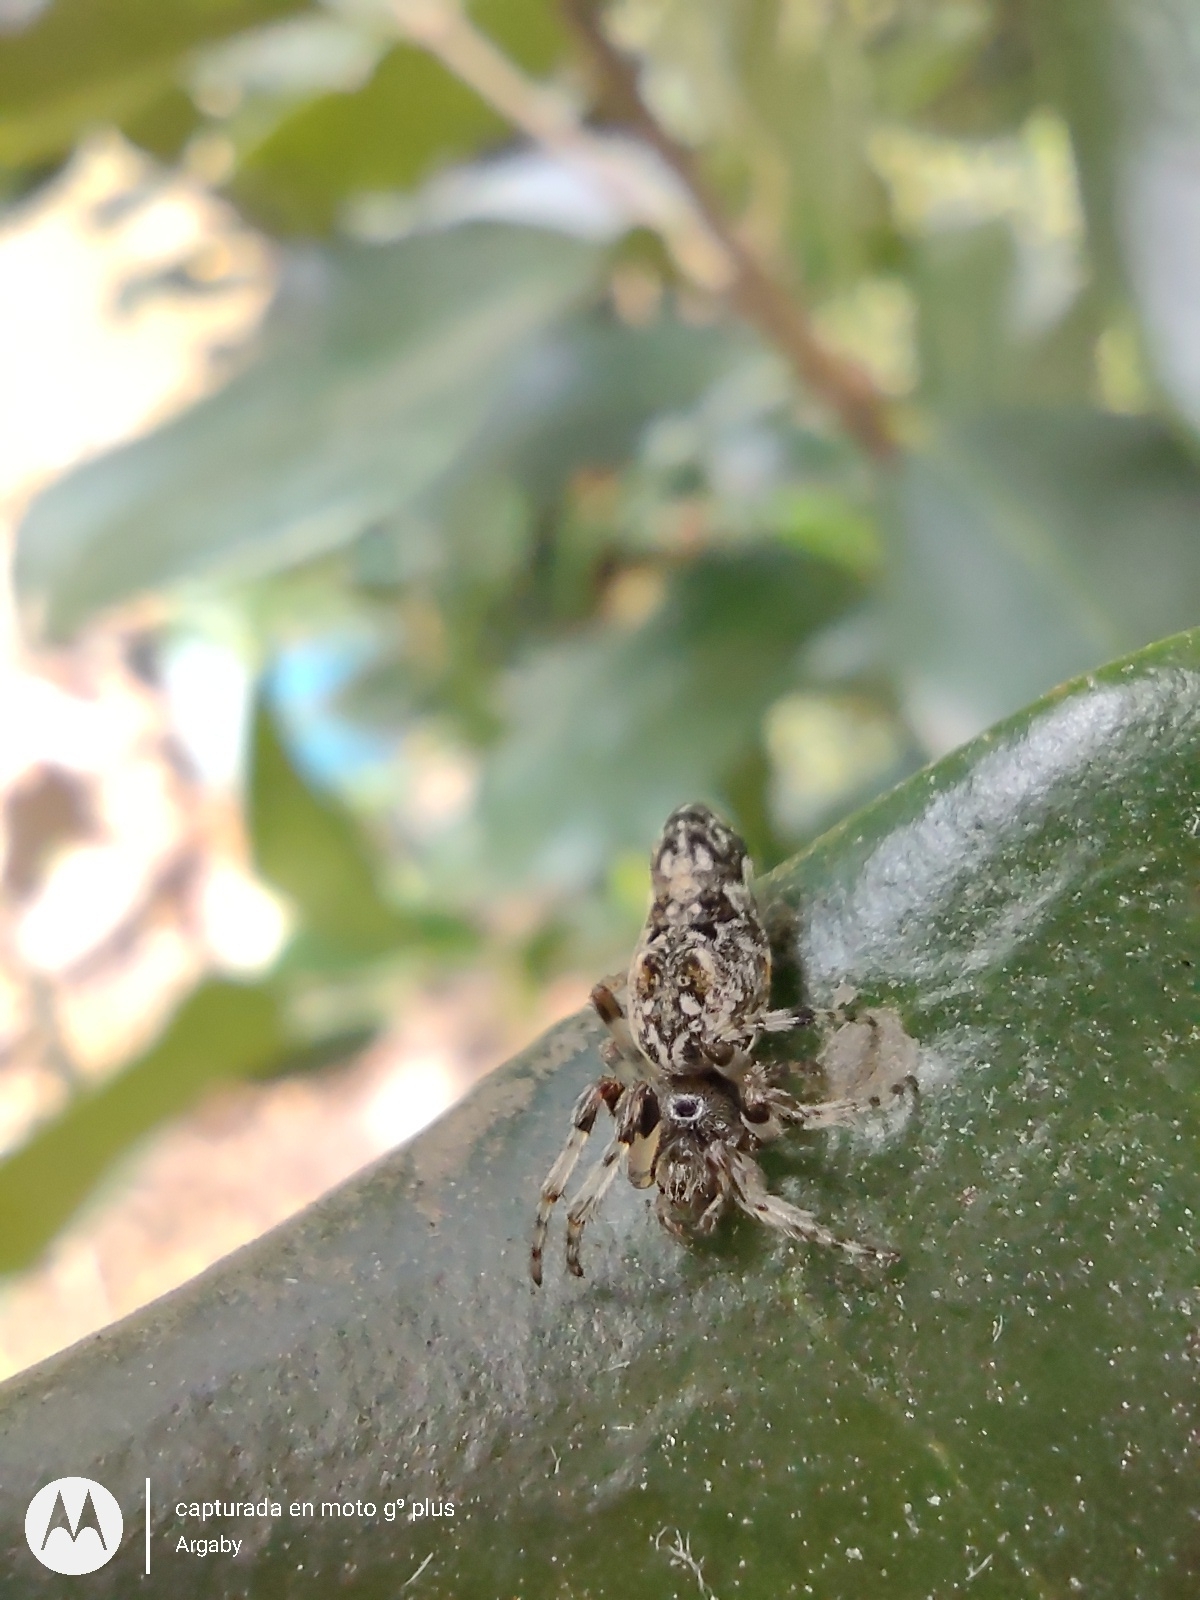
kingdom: Animalia
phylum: Arthropoda
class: Arachnida
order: Araneae
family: Araneidae
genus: Cyclosa
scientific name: Cyclosa machadinho
